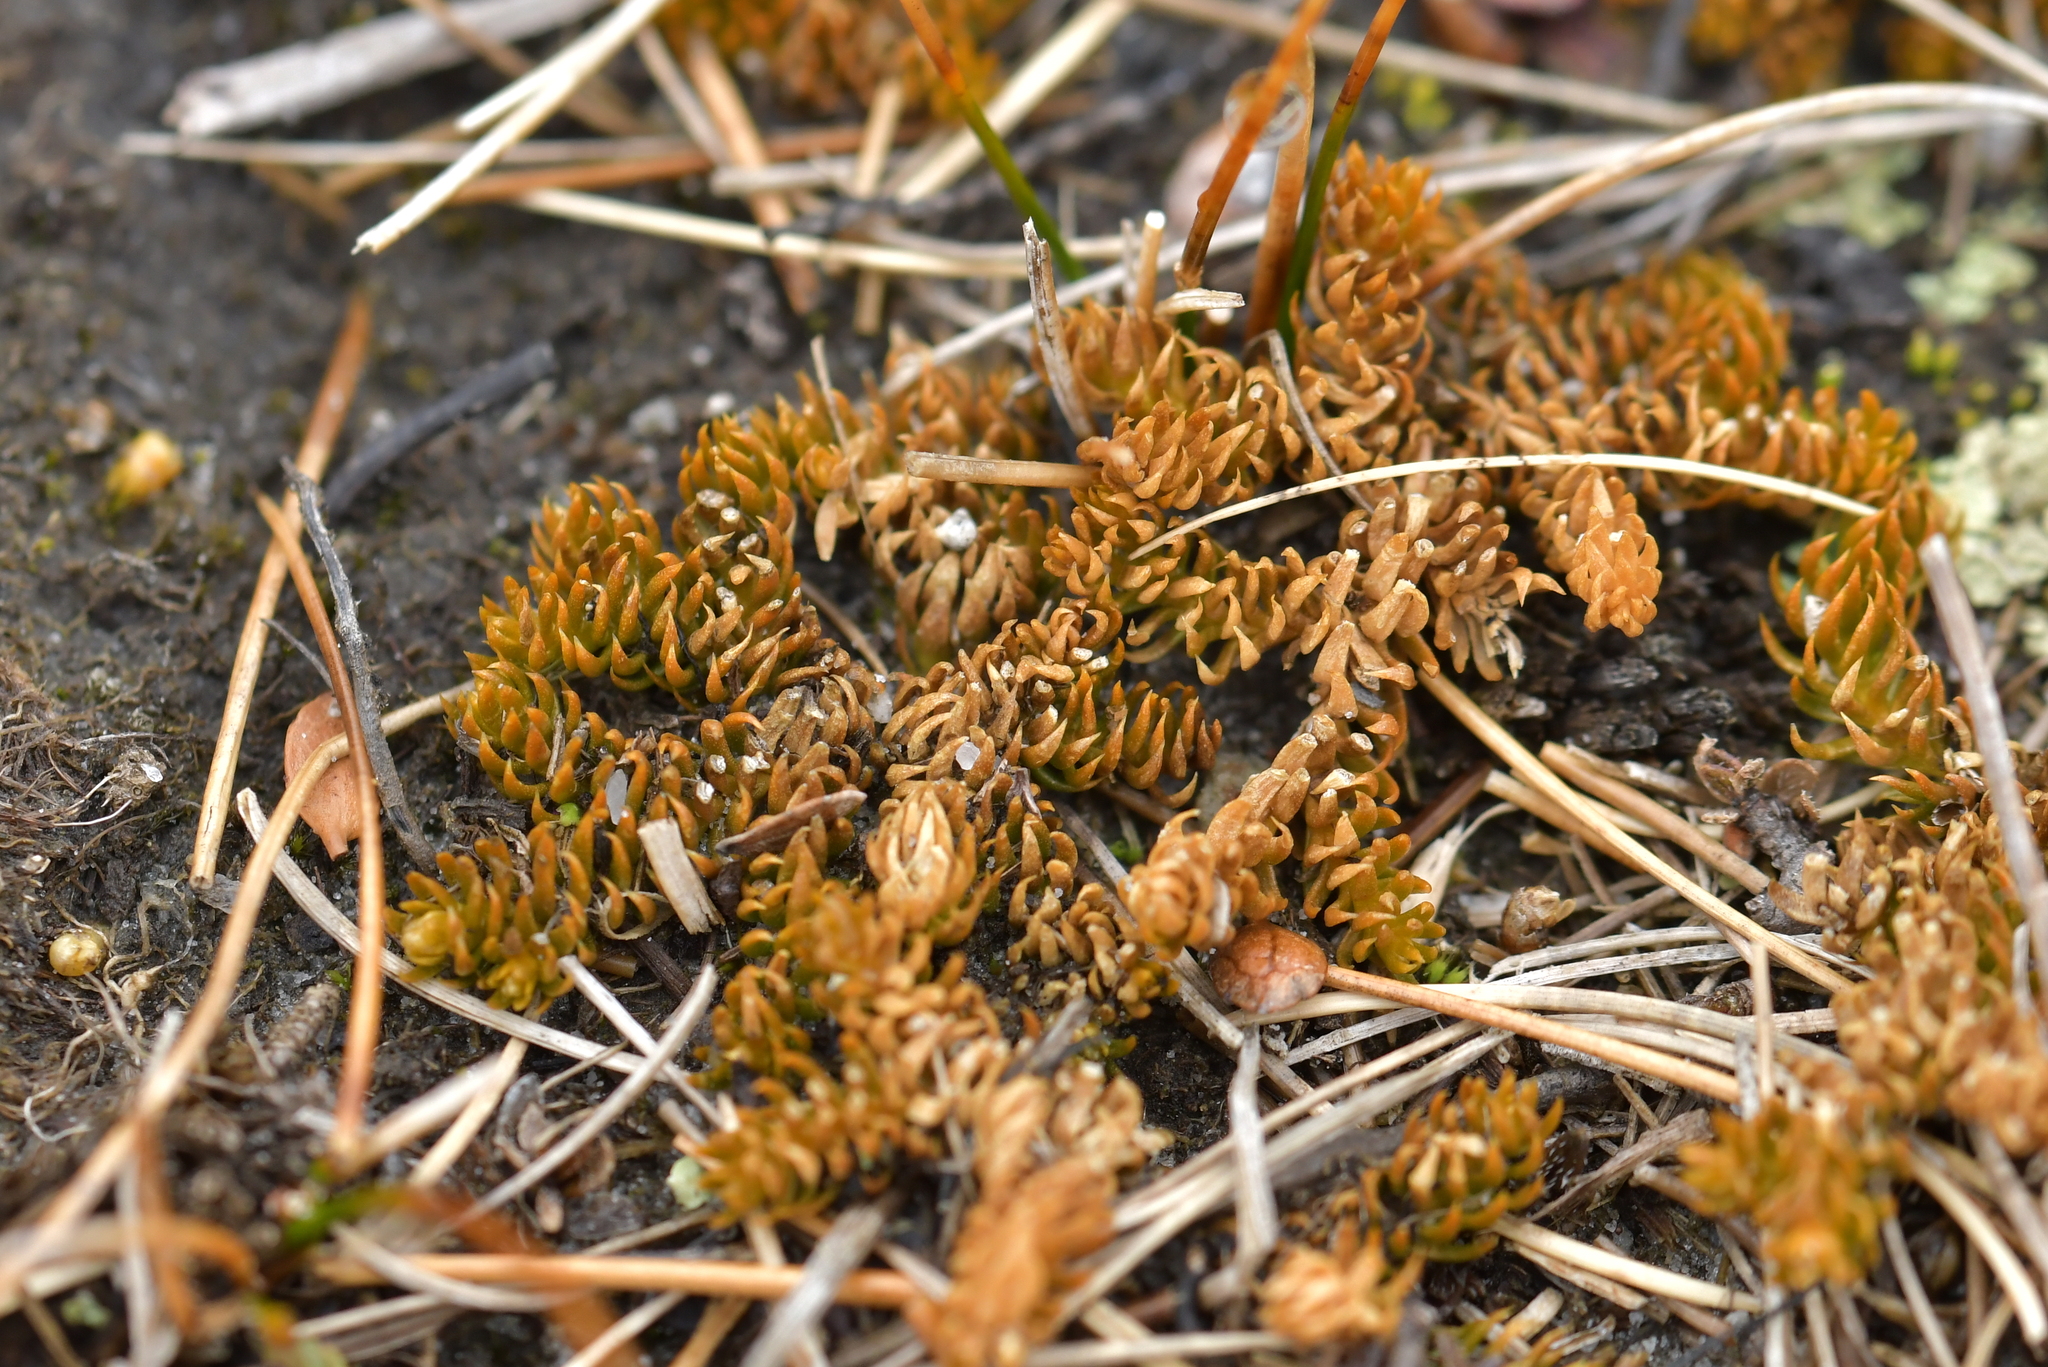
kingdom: Plantae
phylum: Tracheophyta
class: Lycopodiopsida
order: Lycopodiales
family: Lycopodiaceae
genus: Austrolycopodium
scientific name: Austrolycopodium fastigiatum
